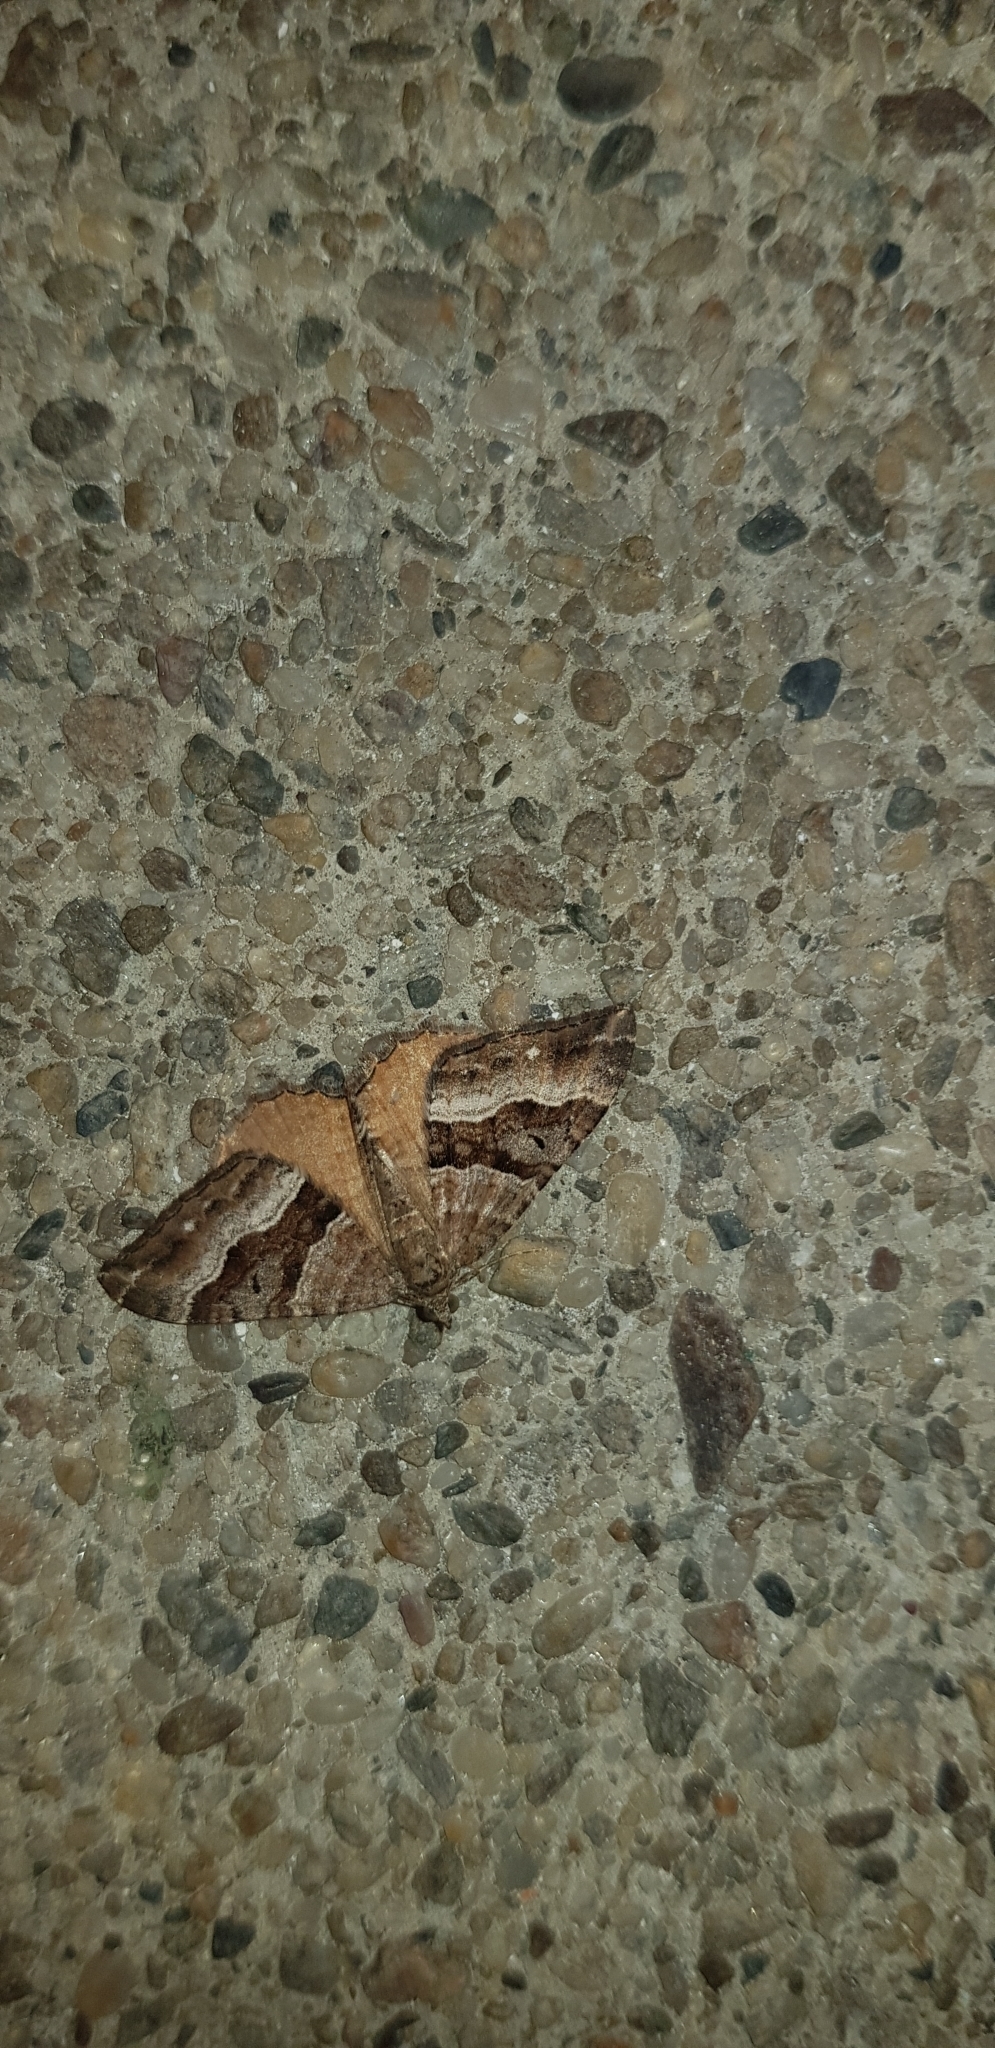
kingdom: Animalia
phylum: Arthropoda
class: Insecta
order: Lepidoptera
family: Geometridae
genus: Hydriomena
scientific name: Hydriomena deltoidata
